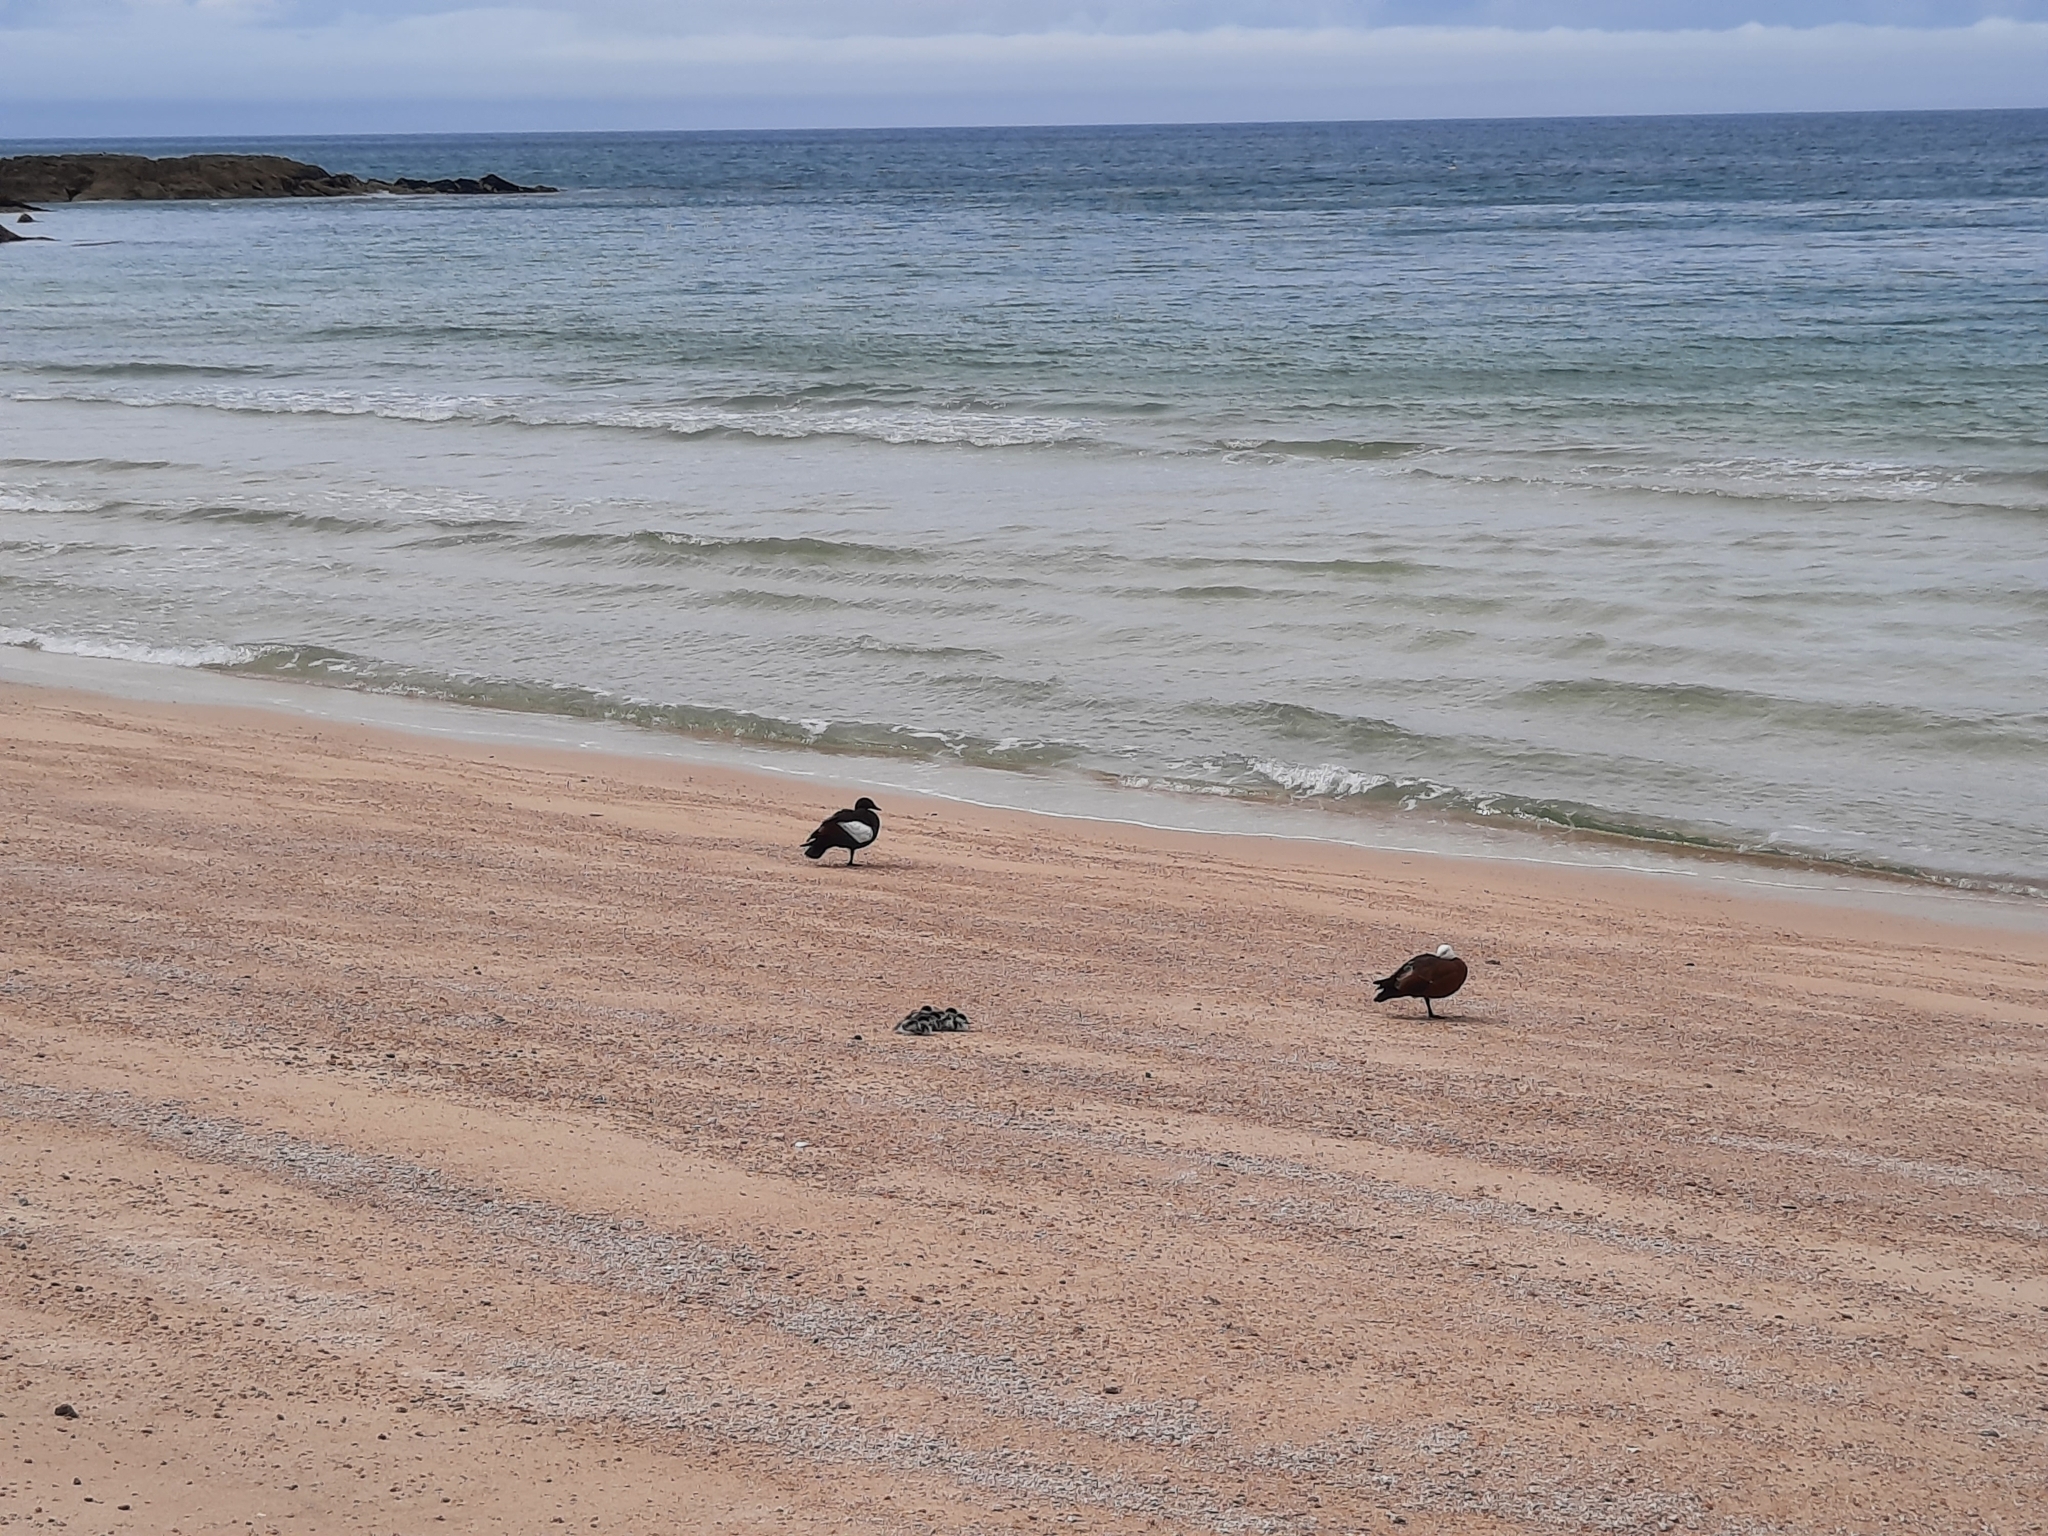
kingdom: Animalia
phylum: Chordata
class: Aves
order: Anseriformes
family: Anatidae
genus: Tadorna
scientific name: Tadorna variegata
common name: Paradise shelduck
